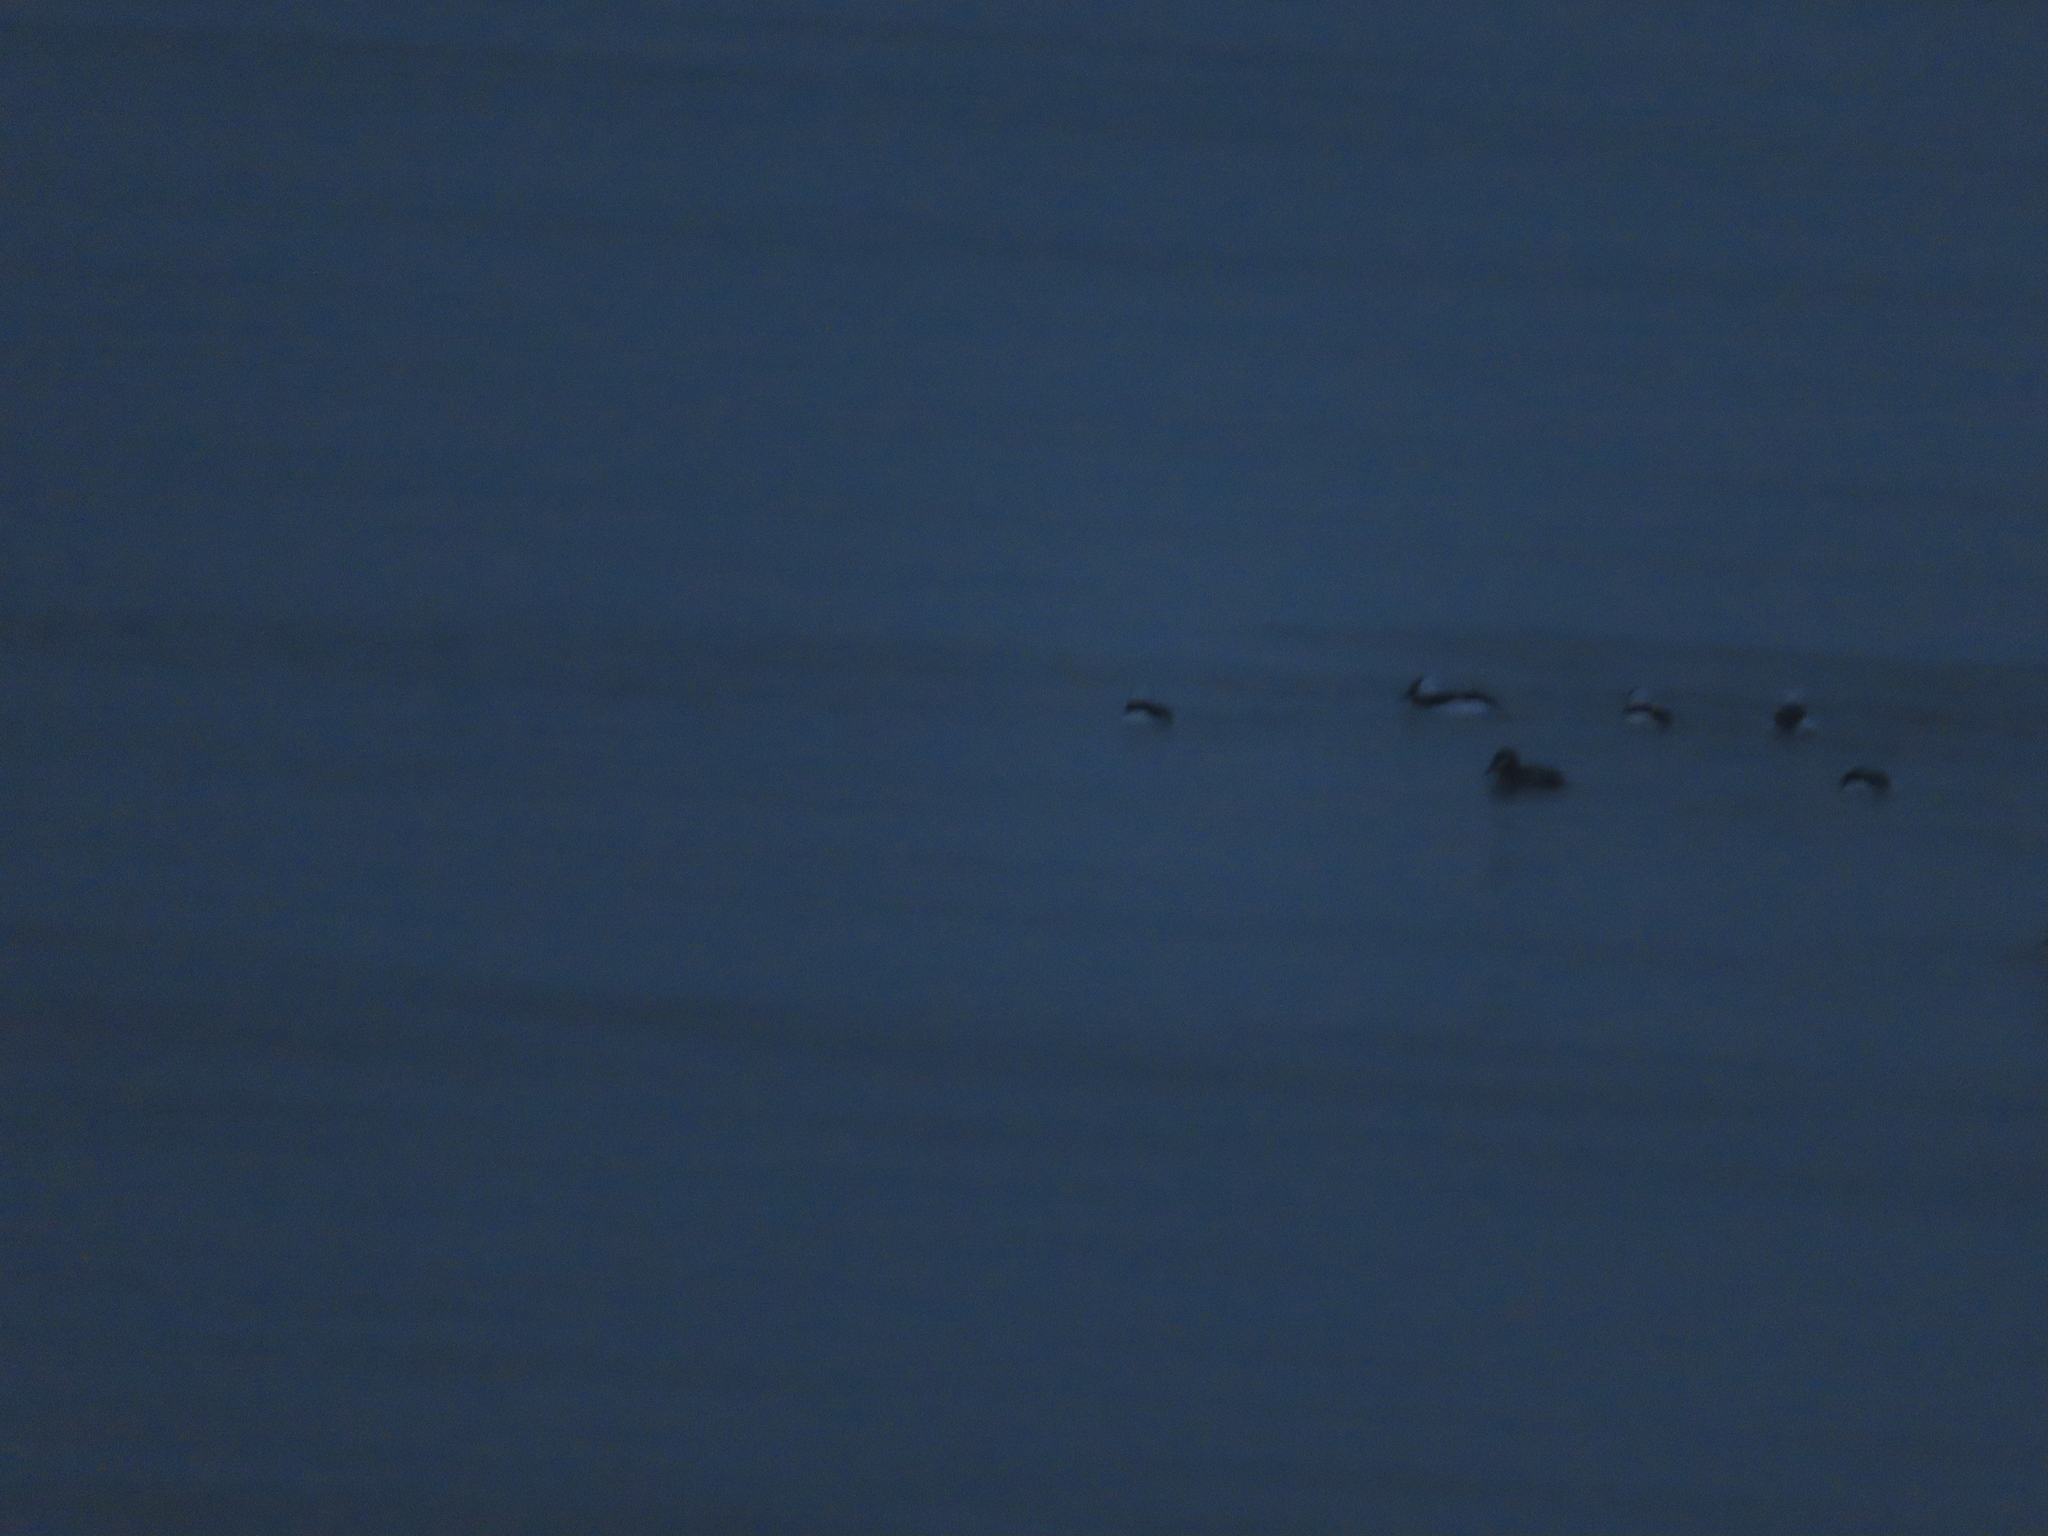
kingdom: Animalia
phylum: Chordata
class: Aves
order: Anseriformes
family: Anatidae
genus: Bucephala
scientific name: Bucephala albeola
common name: Bufflehead
